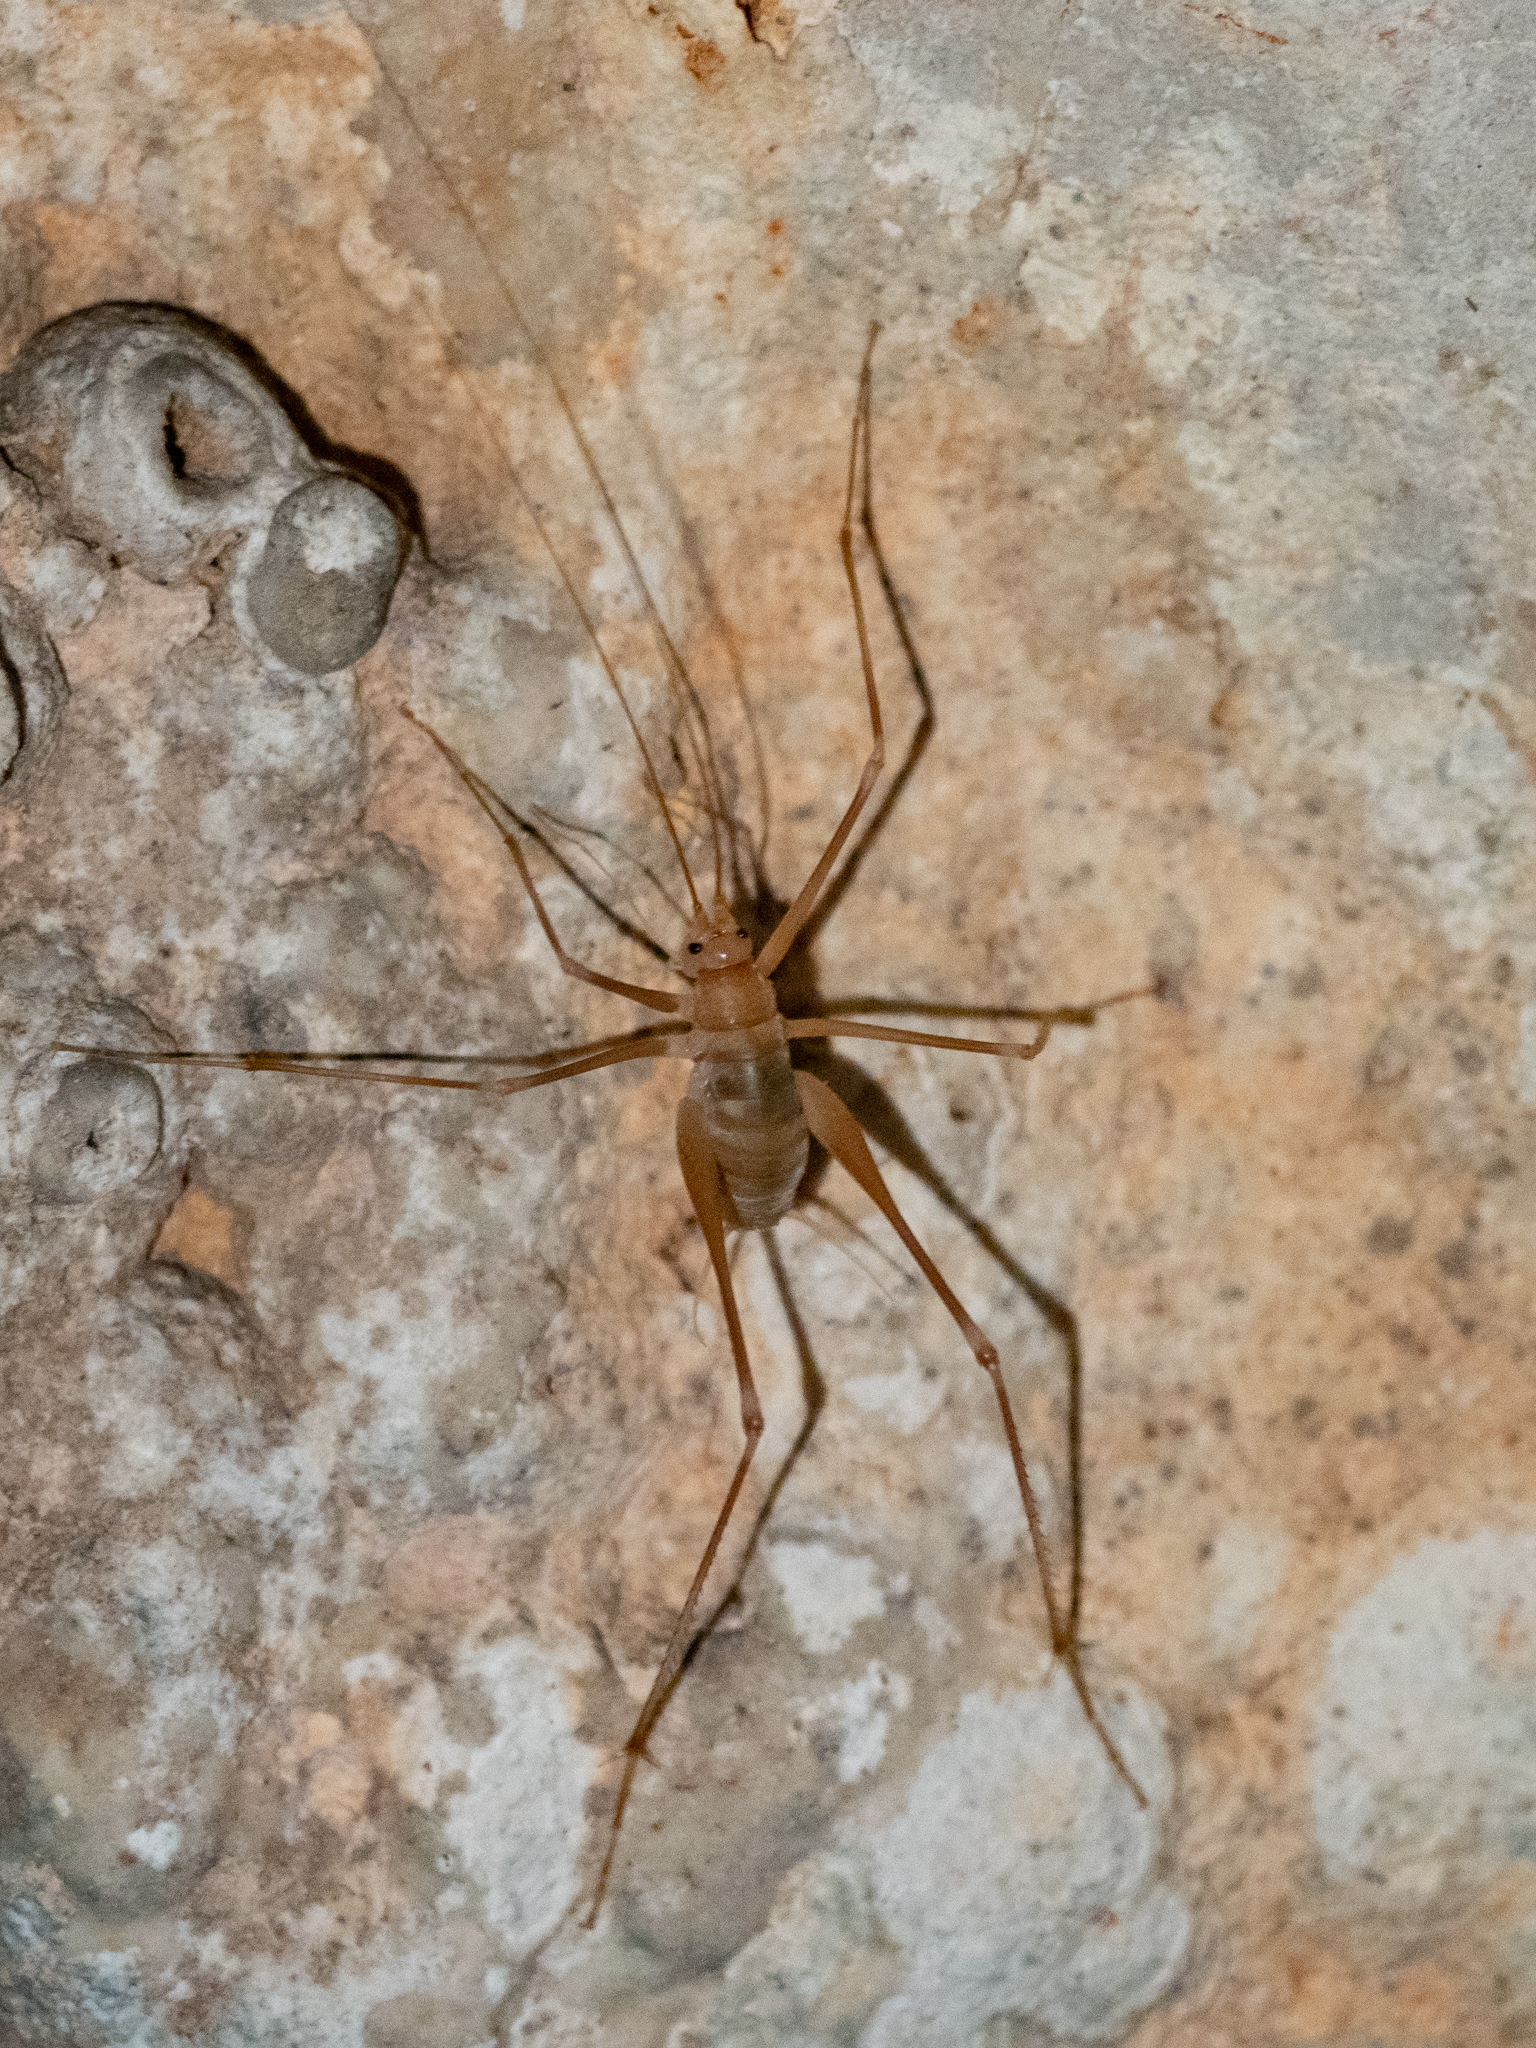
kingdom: Animalia
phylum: Arthropoda
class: Insecta
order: Orthoptera
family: Rhaphidophoridae
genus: Dolichopoda
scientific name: Dolichopoda araneiformis
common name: Spidery cave-cricket
